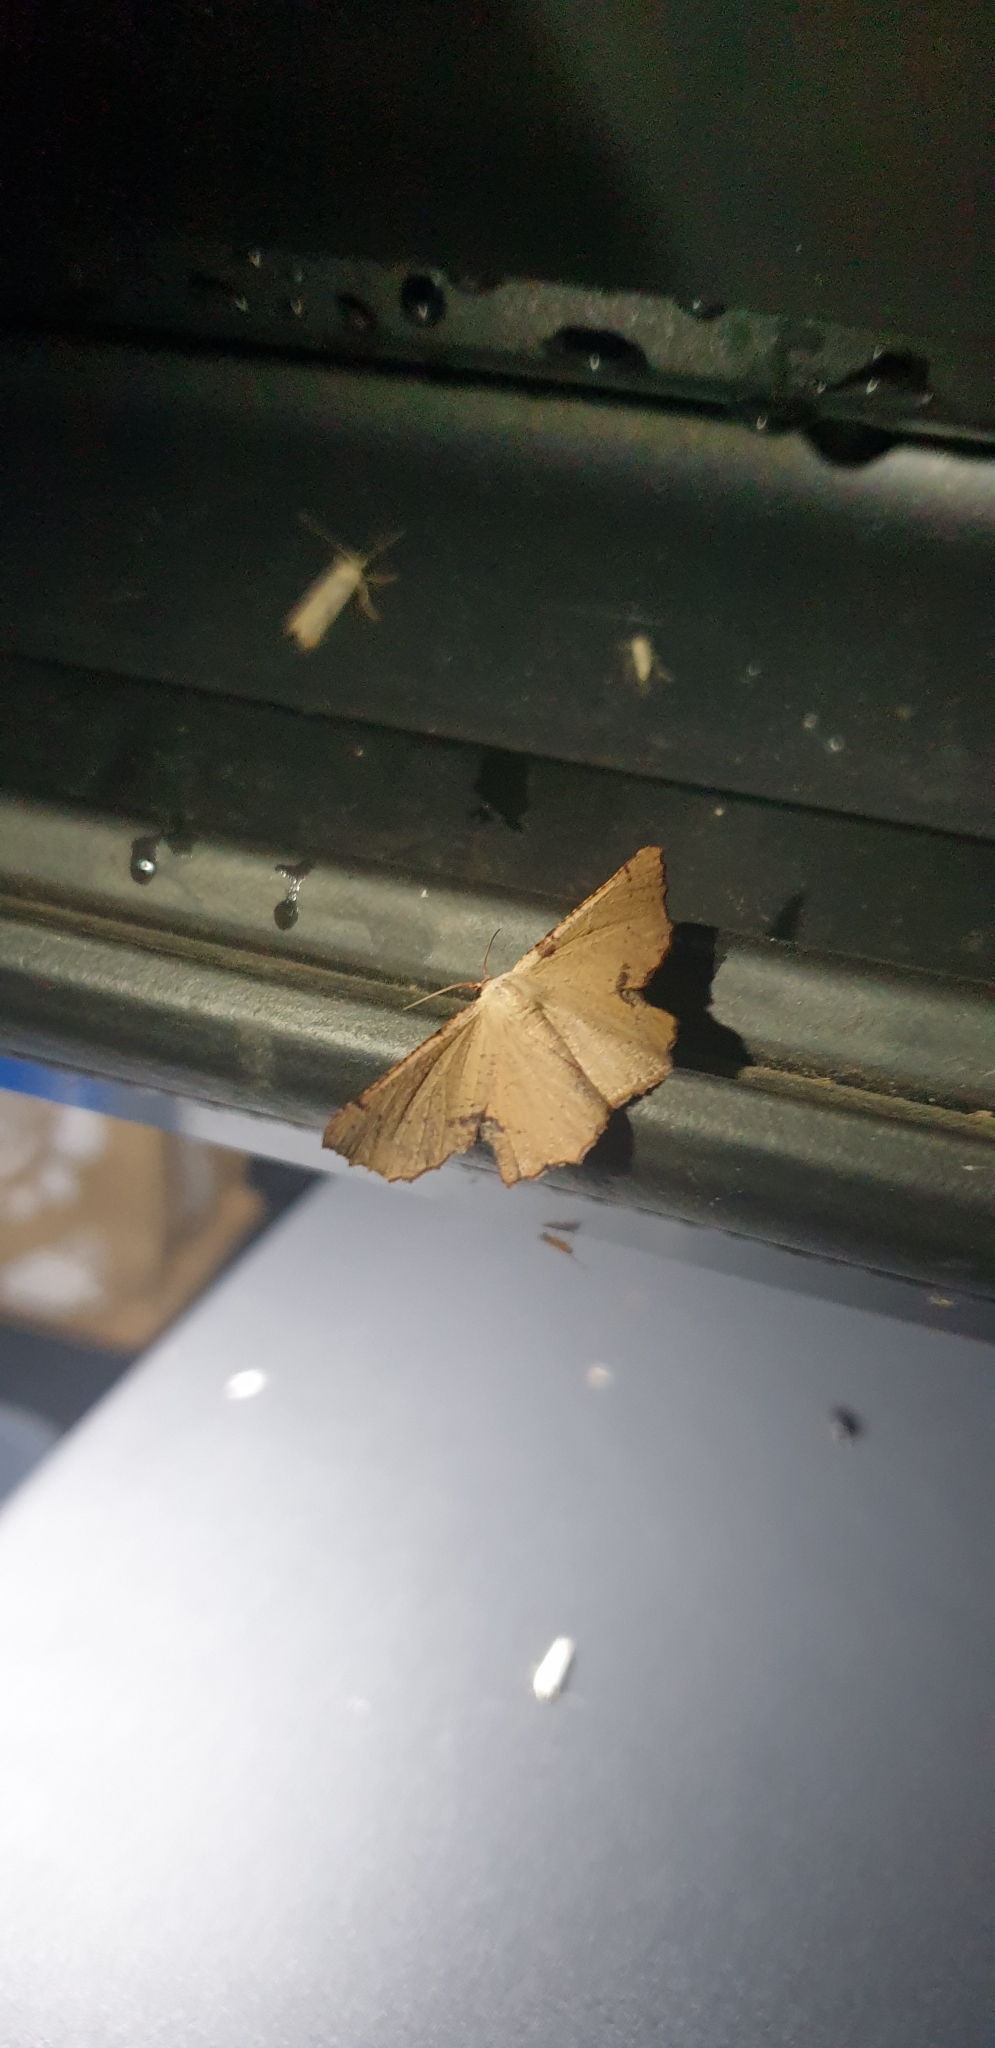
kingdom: Animalia
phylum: Arthropoda
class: Insecta
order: Lepidoptera
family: Geometridae
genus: Cernia
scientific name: Cernia amyclaria
